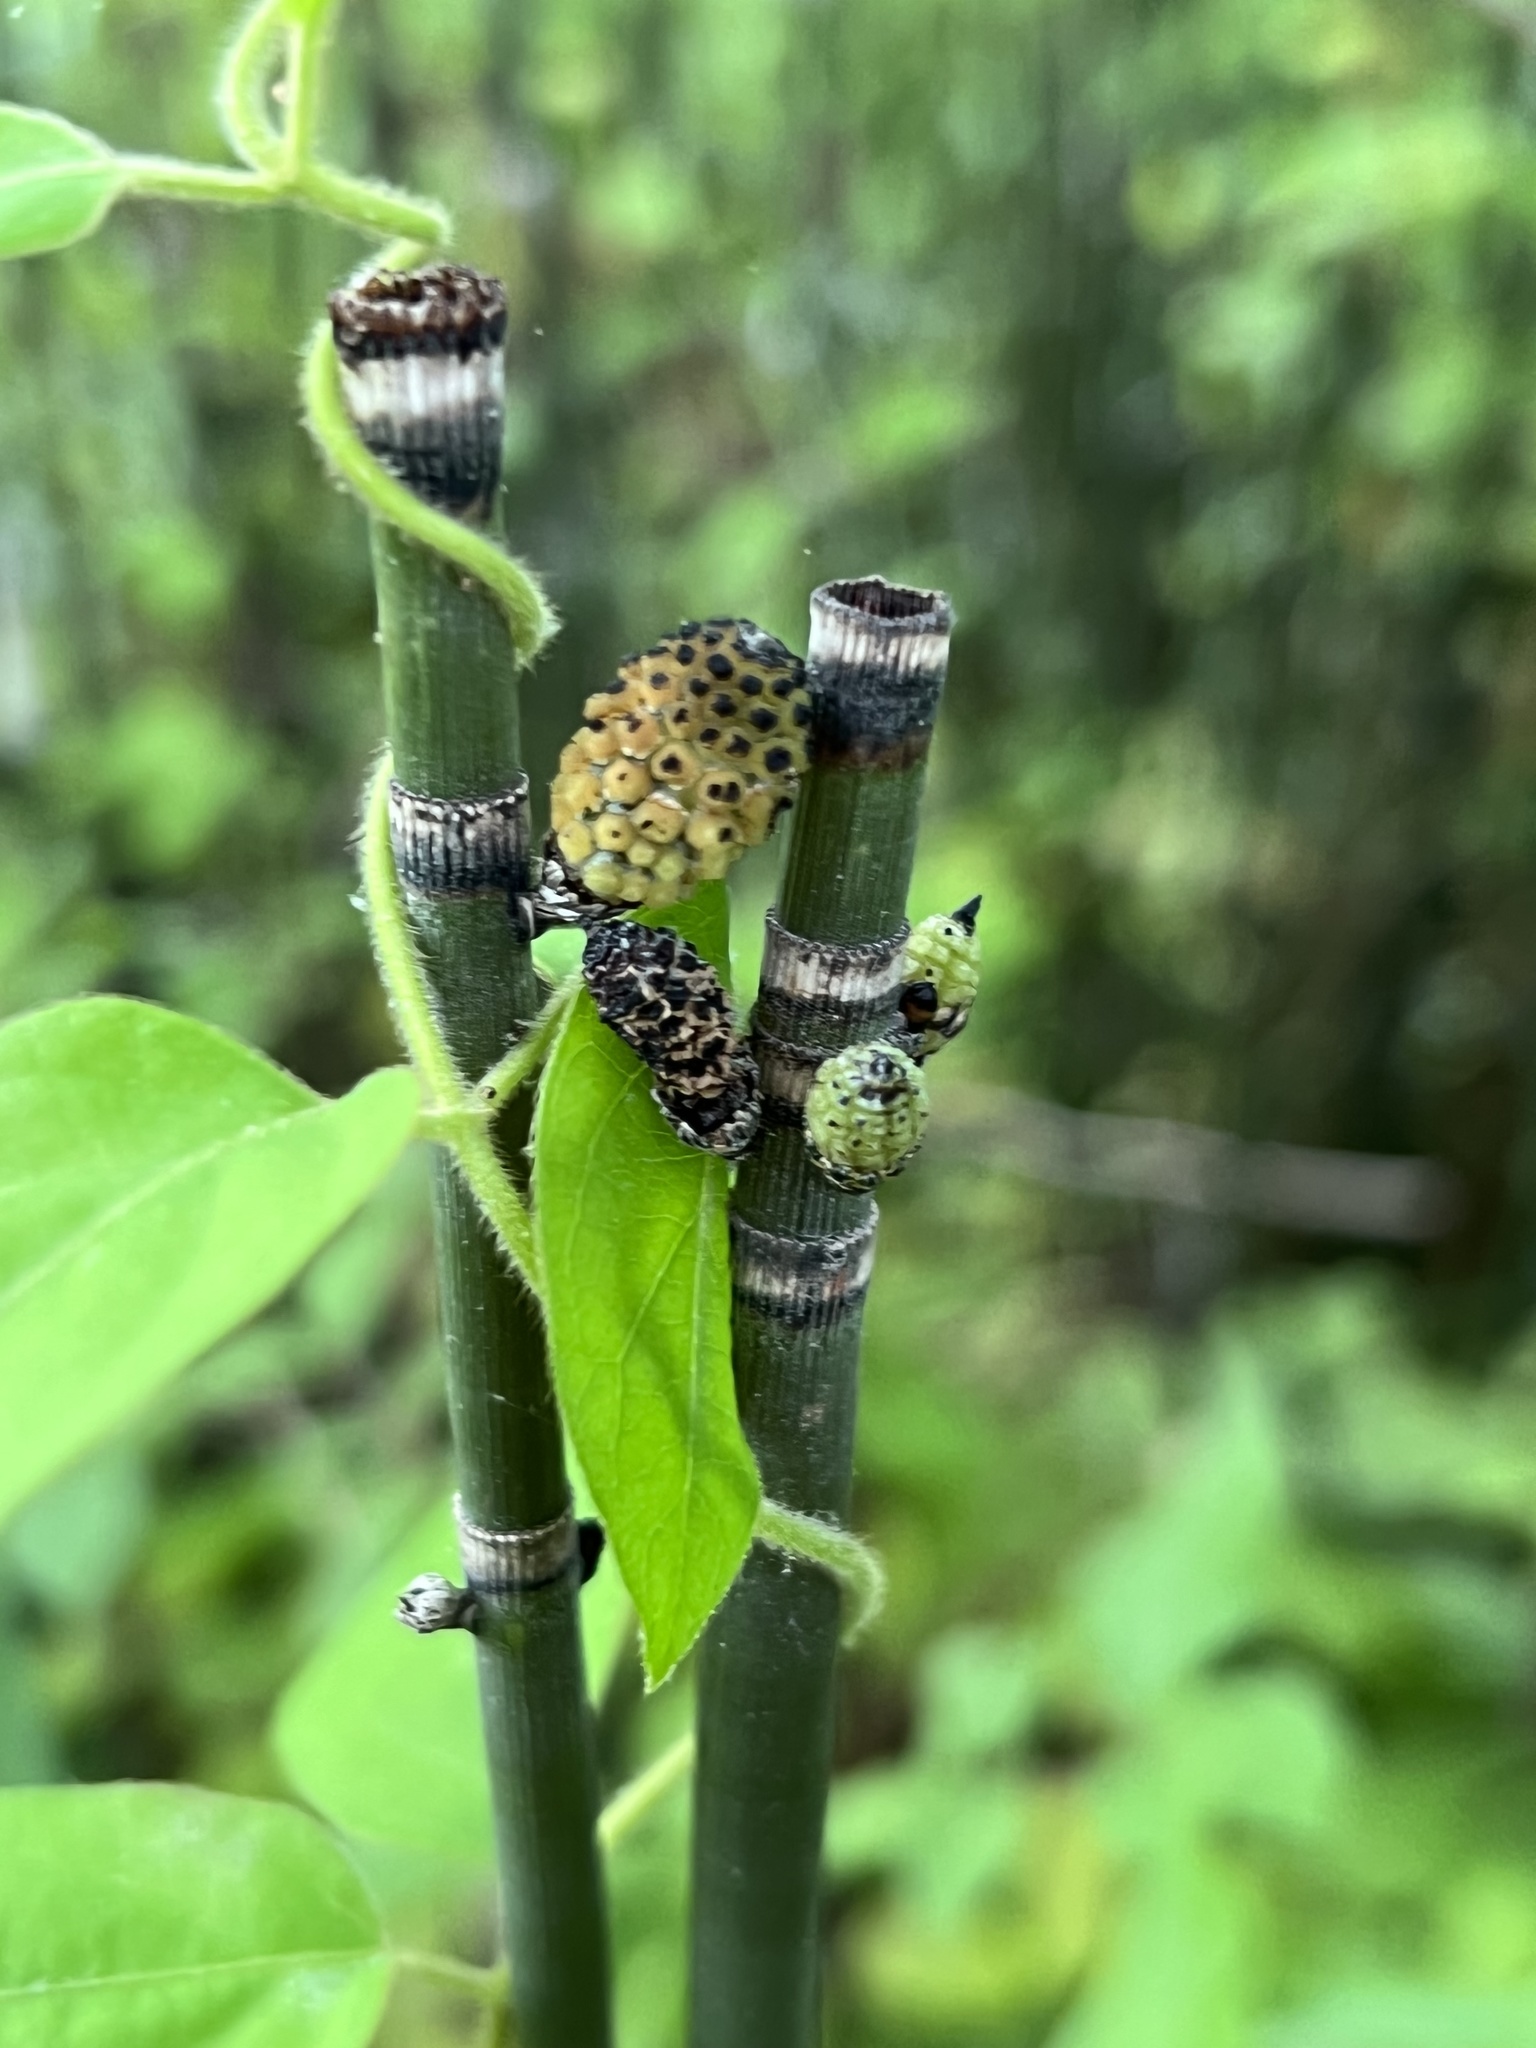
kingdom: Plantae
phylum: Tracheophyta
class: Polypodiopsida
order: Equisetales
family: Equisetaceae
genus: Equisetum
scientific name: Equisetum hyemale
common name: Rough horsetail
